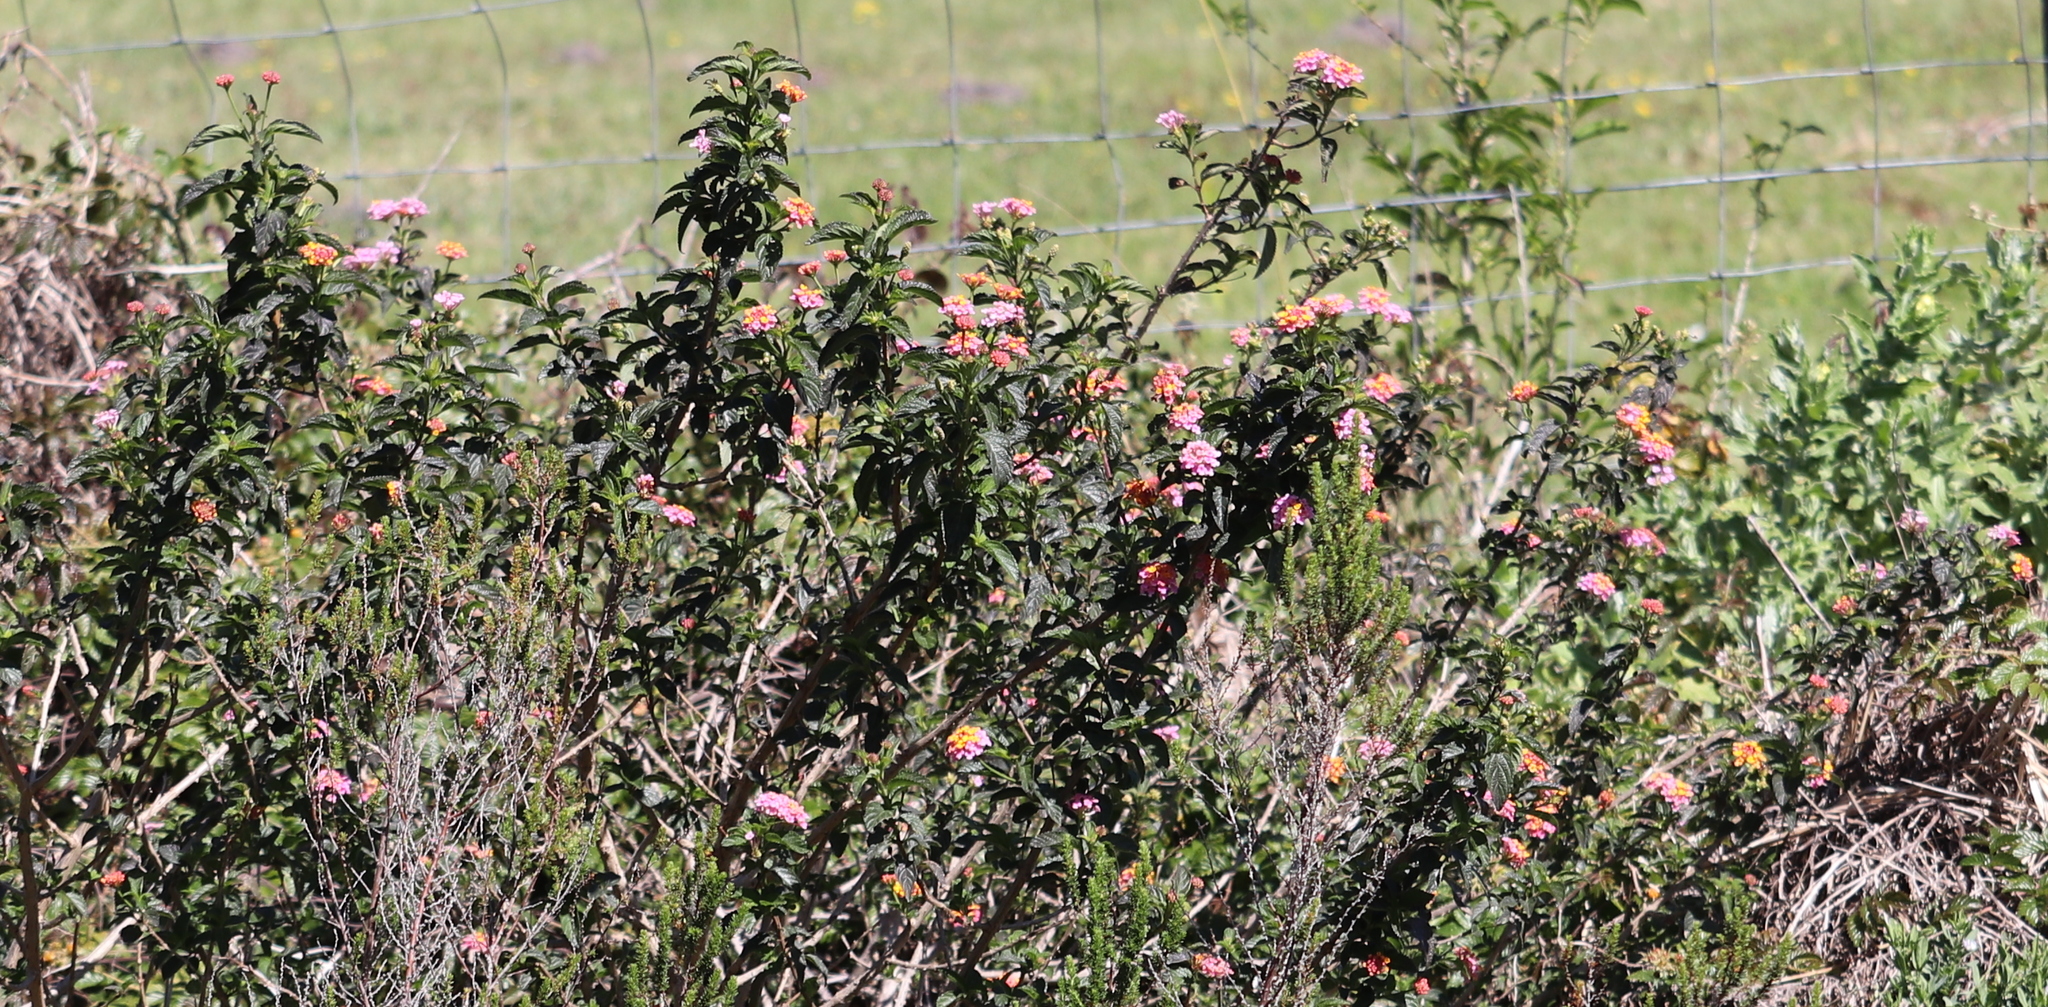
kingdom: Plantae
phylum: Tracheophyta
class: Magnoliopsida
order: Lamiales
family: Verbenaceae
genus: Lantana
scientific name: Lantana camara
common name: Lantana
